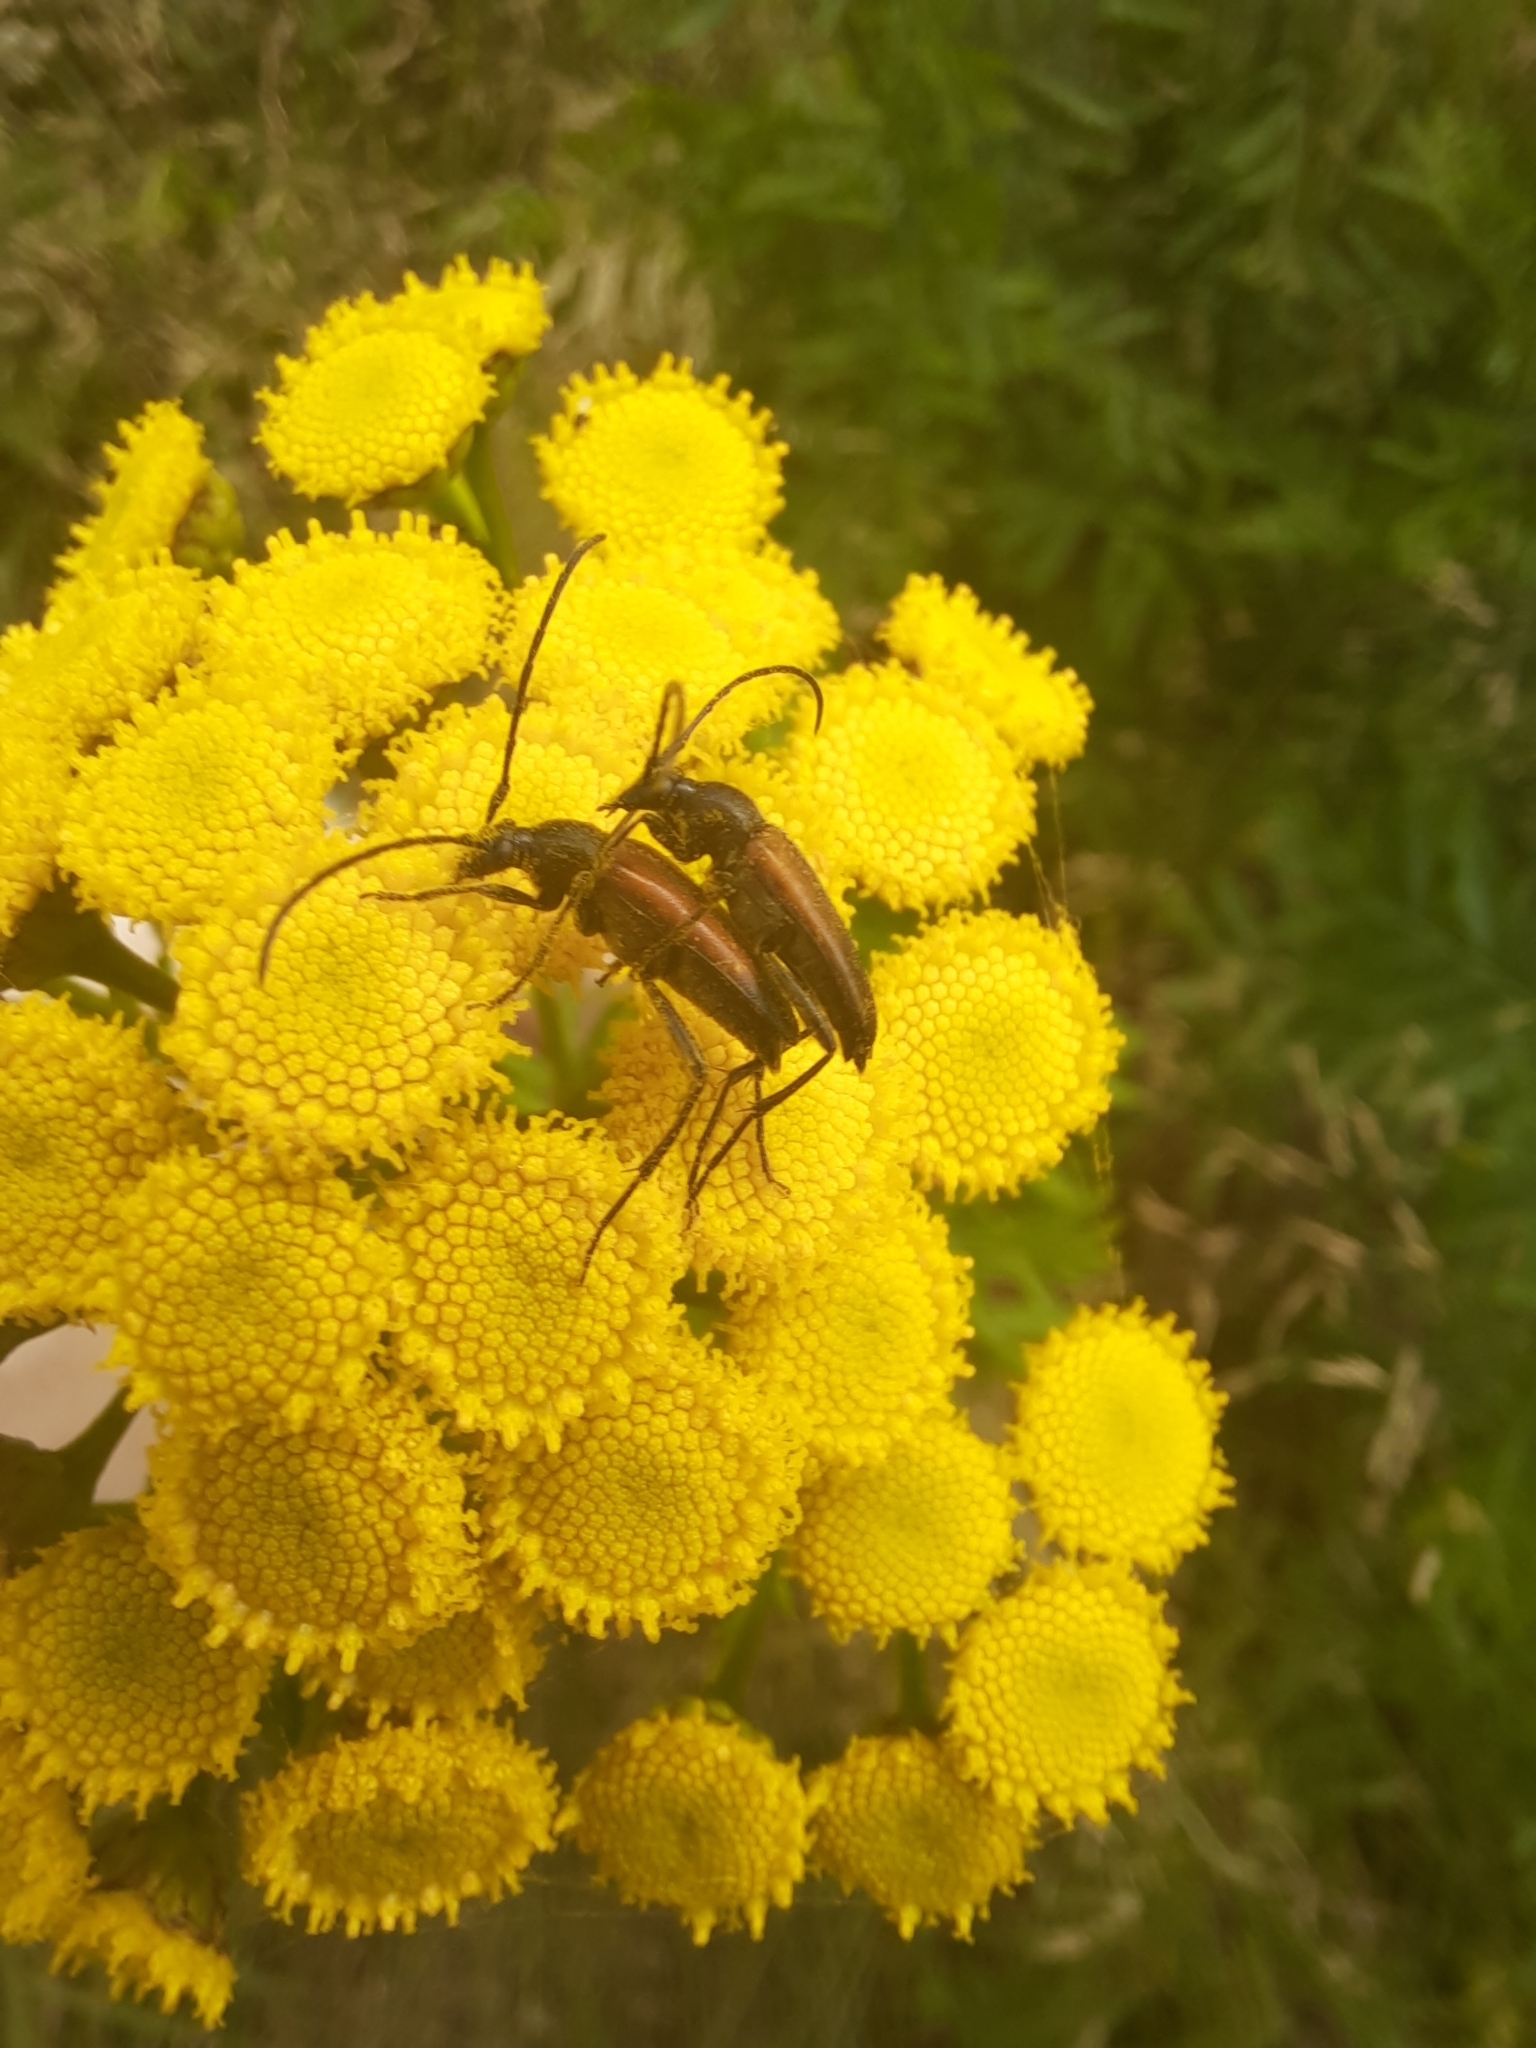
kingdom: Animalia
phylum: Arthropoda
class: Insecta
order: Coleoptera
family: Cerambycidae
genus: Stenurella
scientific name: Stenurella melanura
